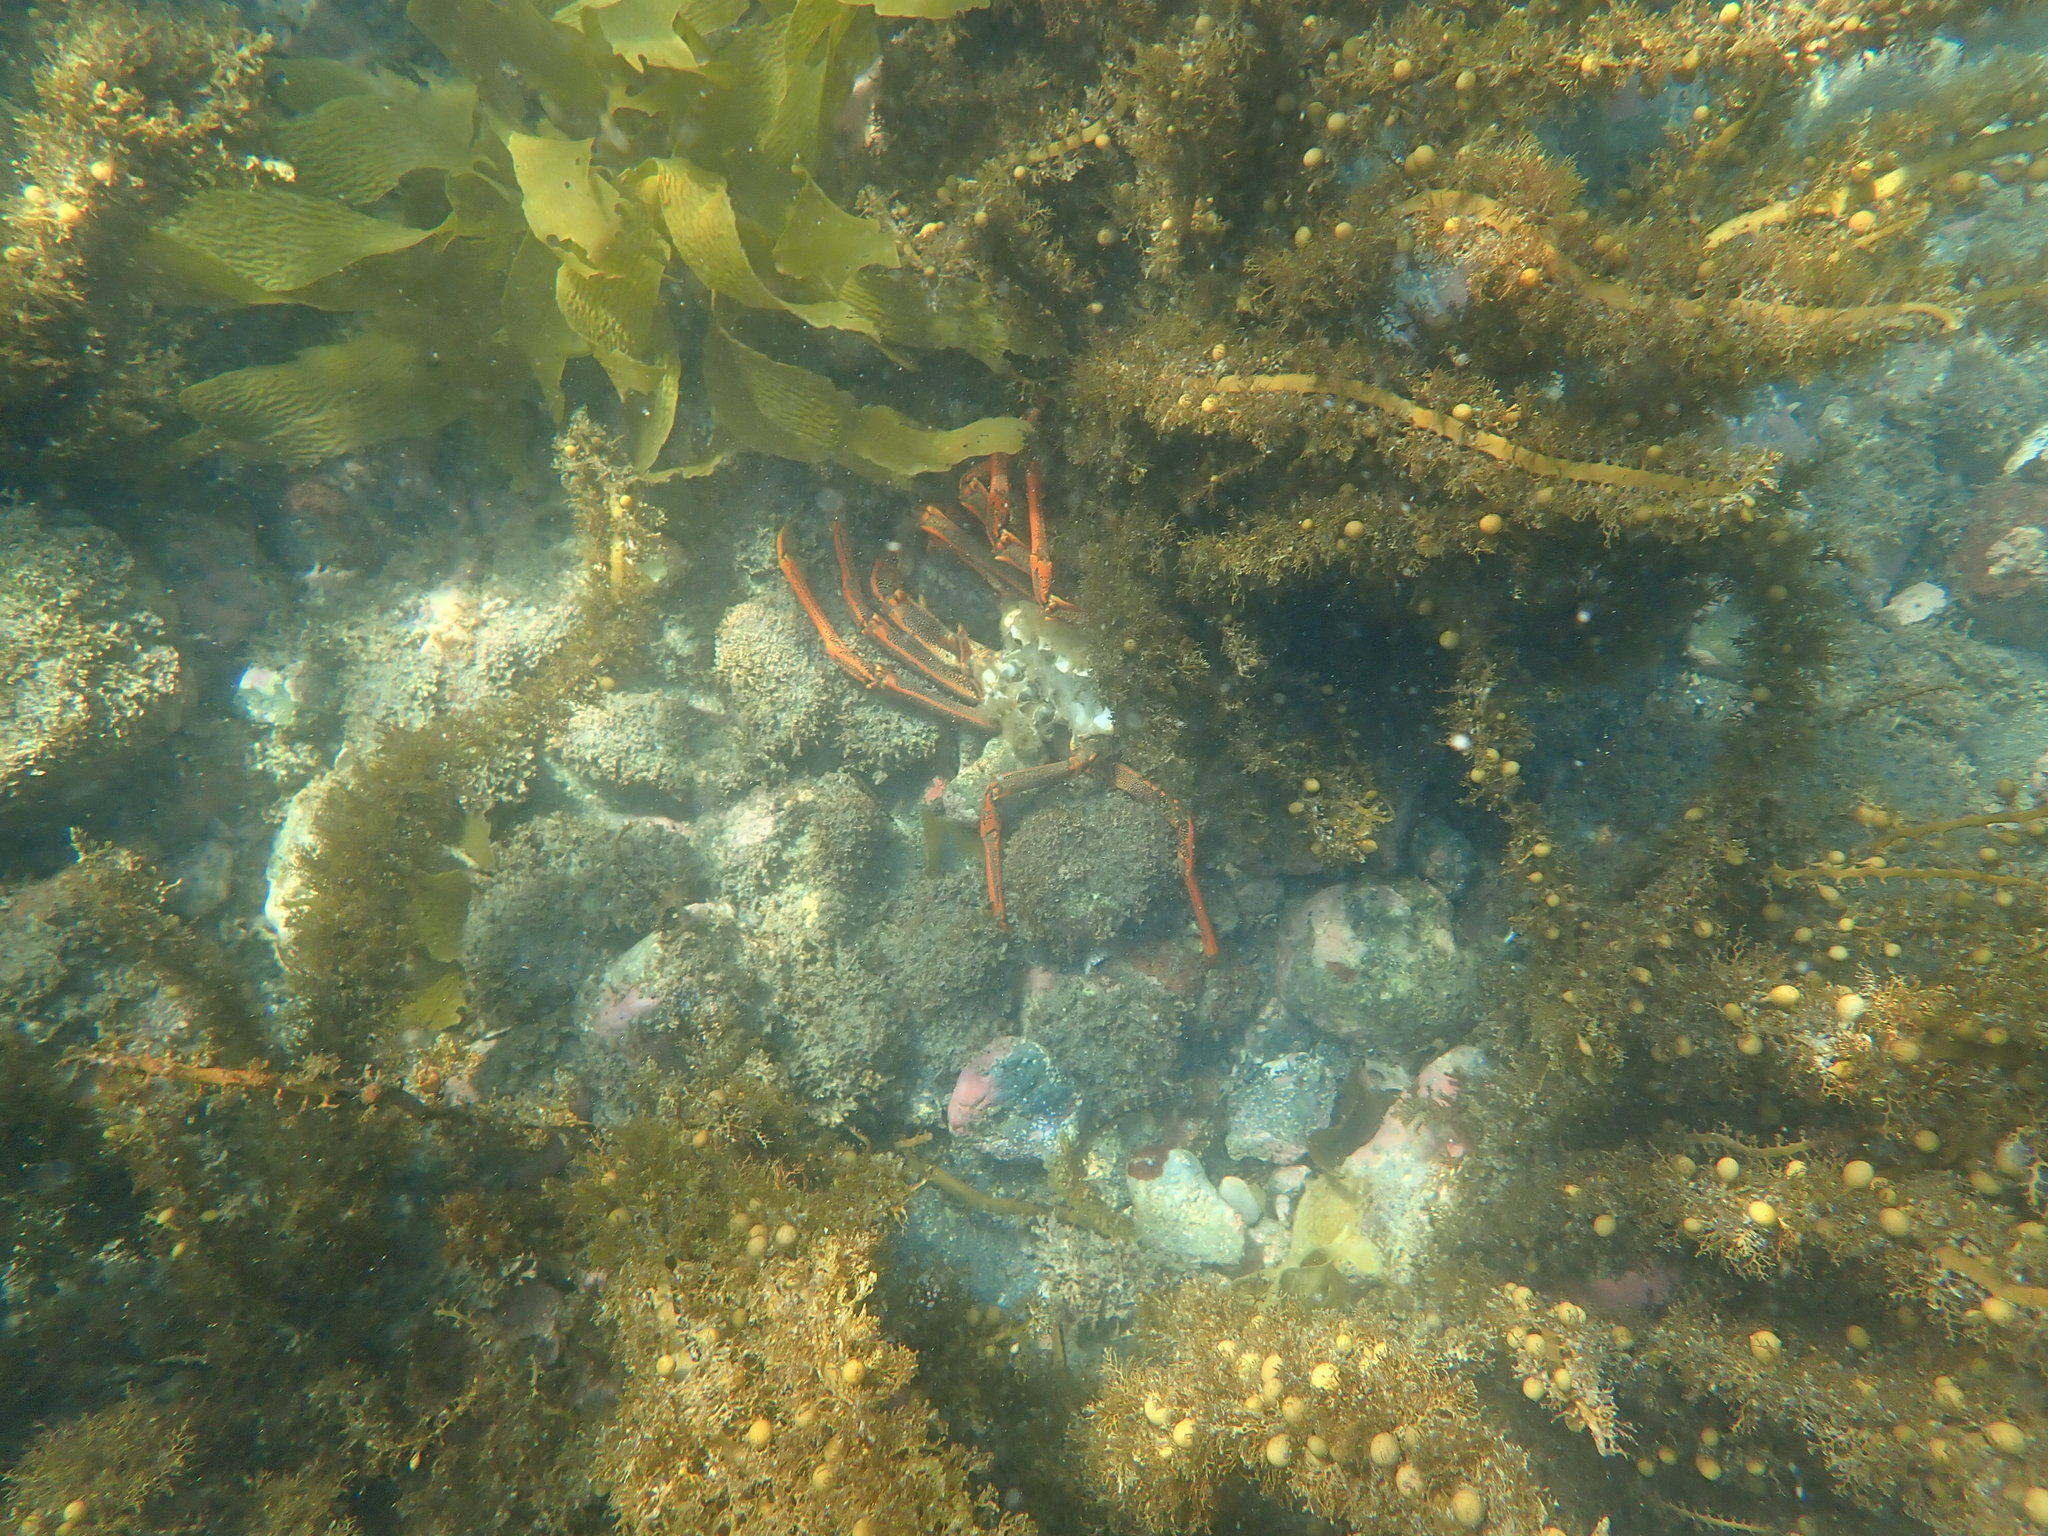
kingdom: Animalia
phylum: Arthropoda
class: Malacostraca
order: Decapoda
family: Palinuridae
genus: Jasus
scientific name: Jasus edwardsii
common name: Red rock lobster
